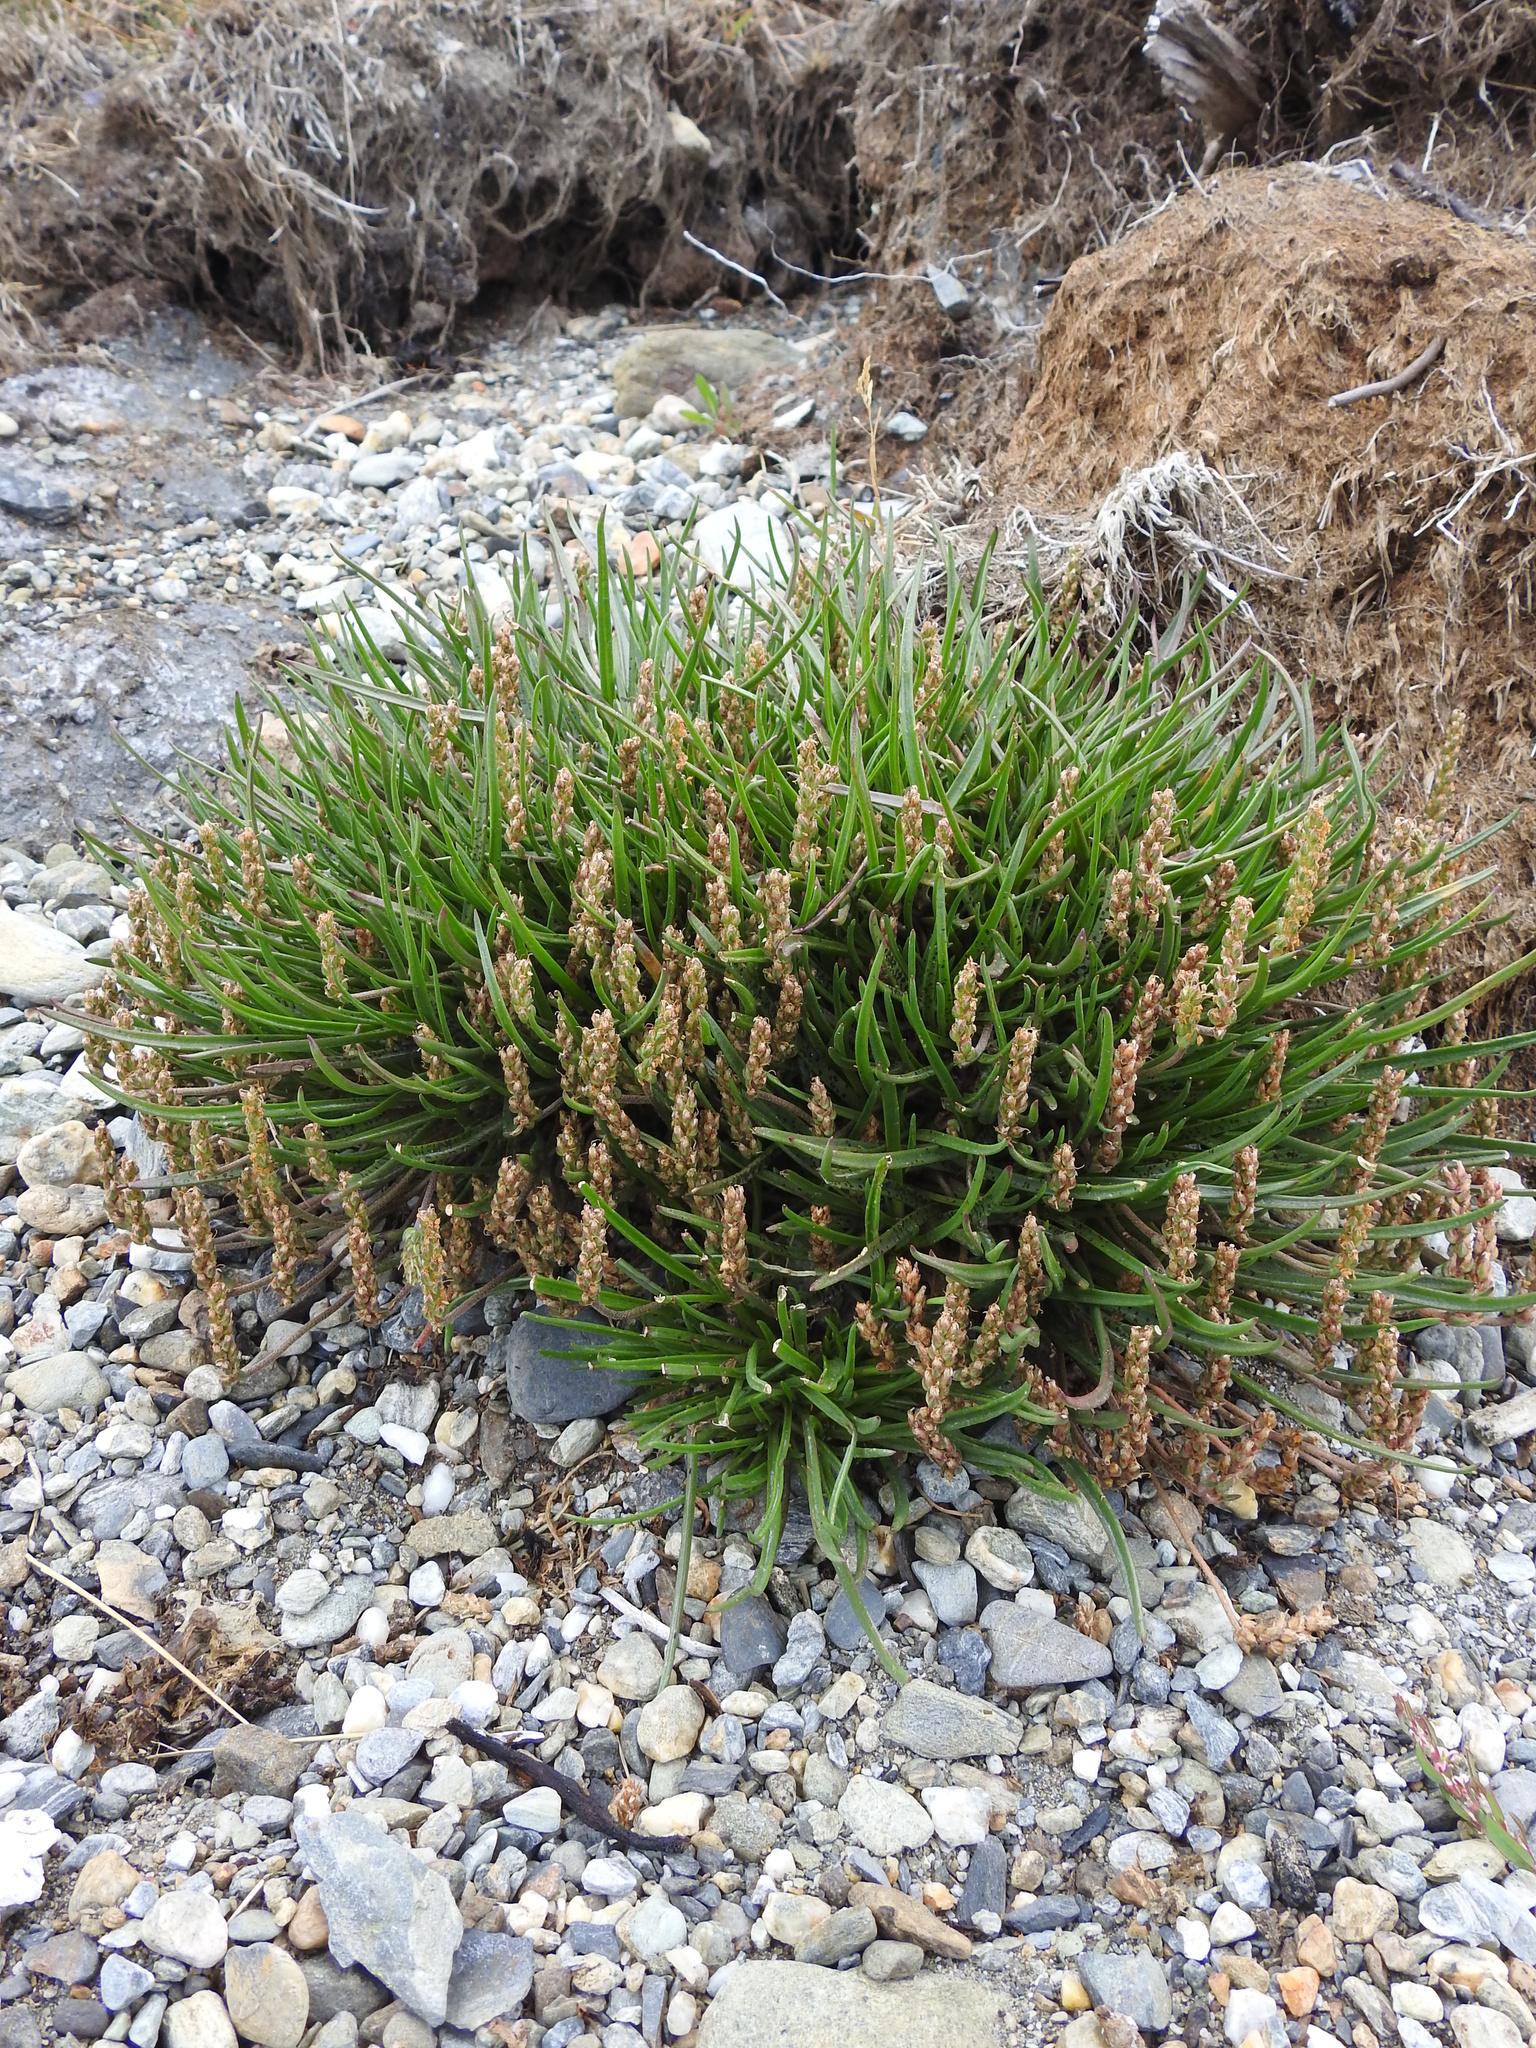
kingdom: Plantae
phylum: Tracheophyta
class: Magnoliopsida
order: Lamiales
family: Plantaginaceae
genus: Plantago
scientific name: Plantago maritima
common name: Sea plantain
